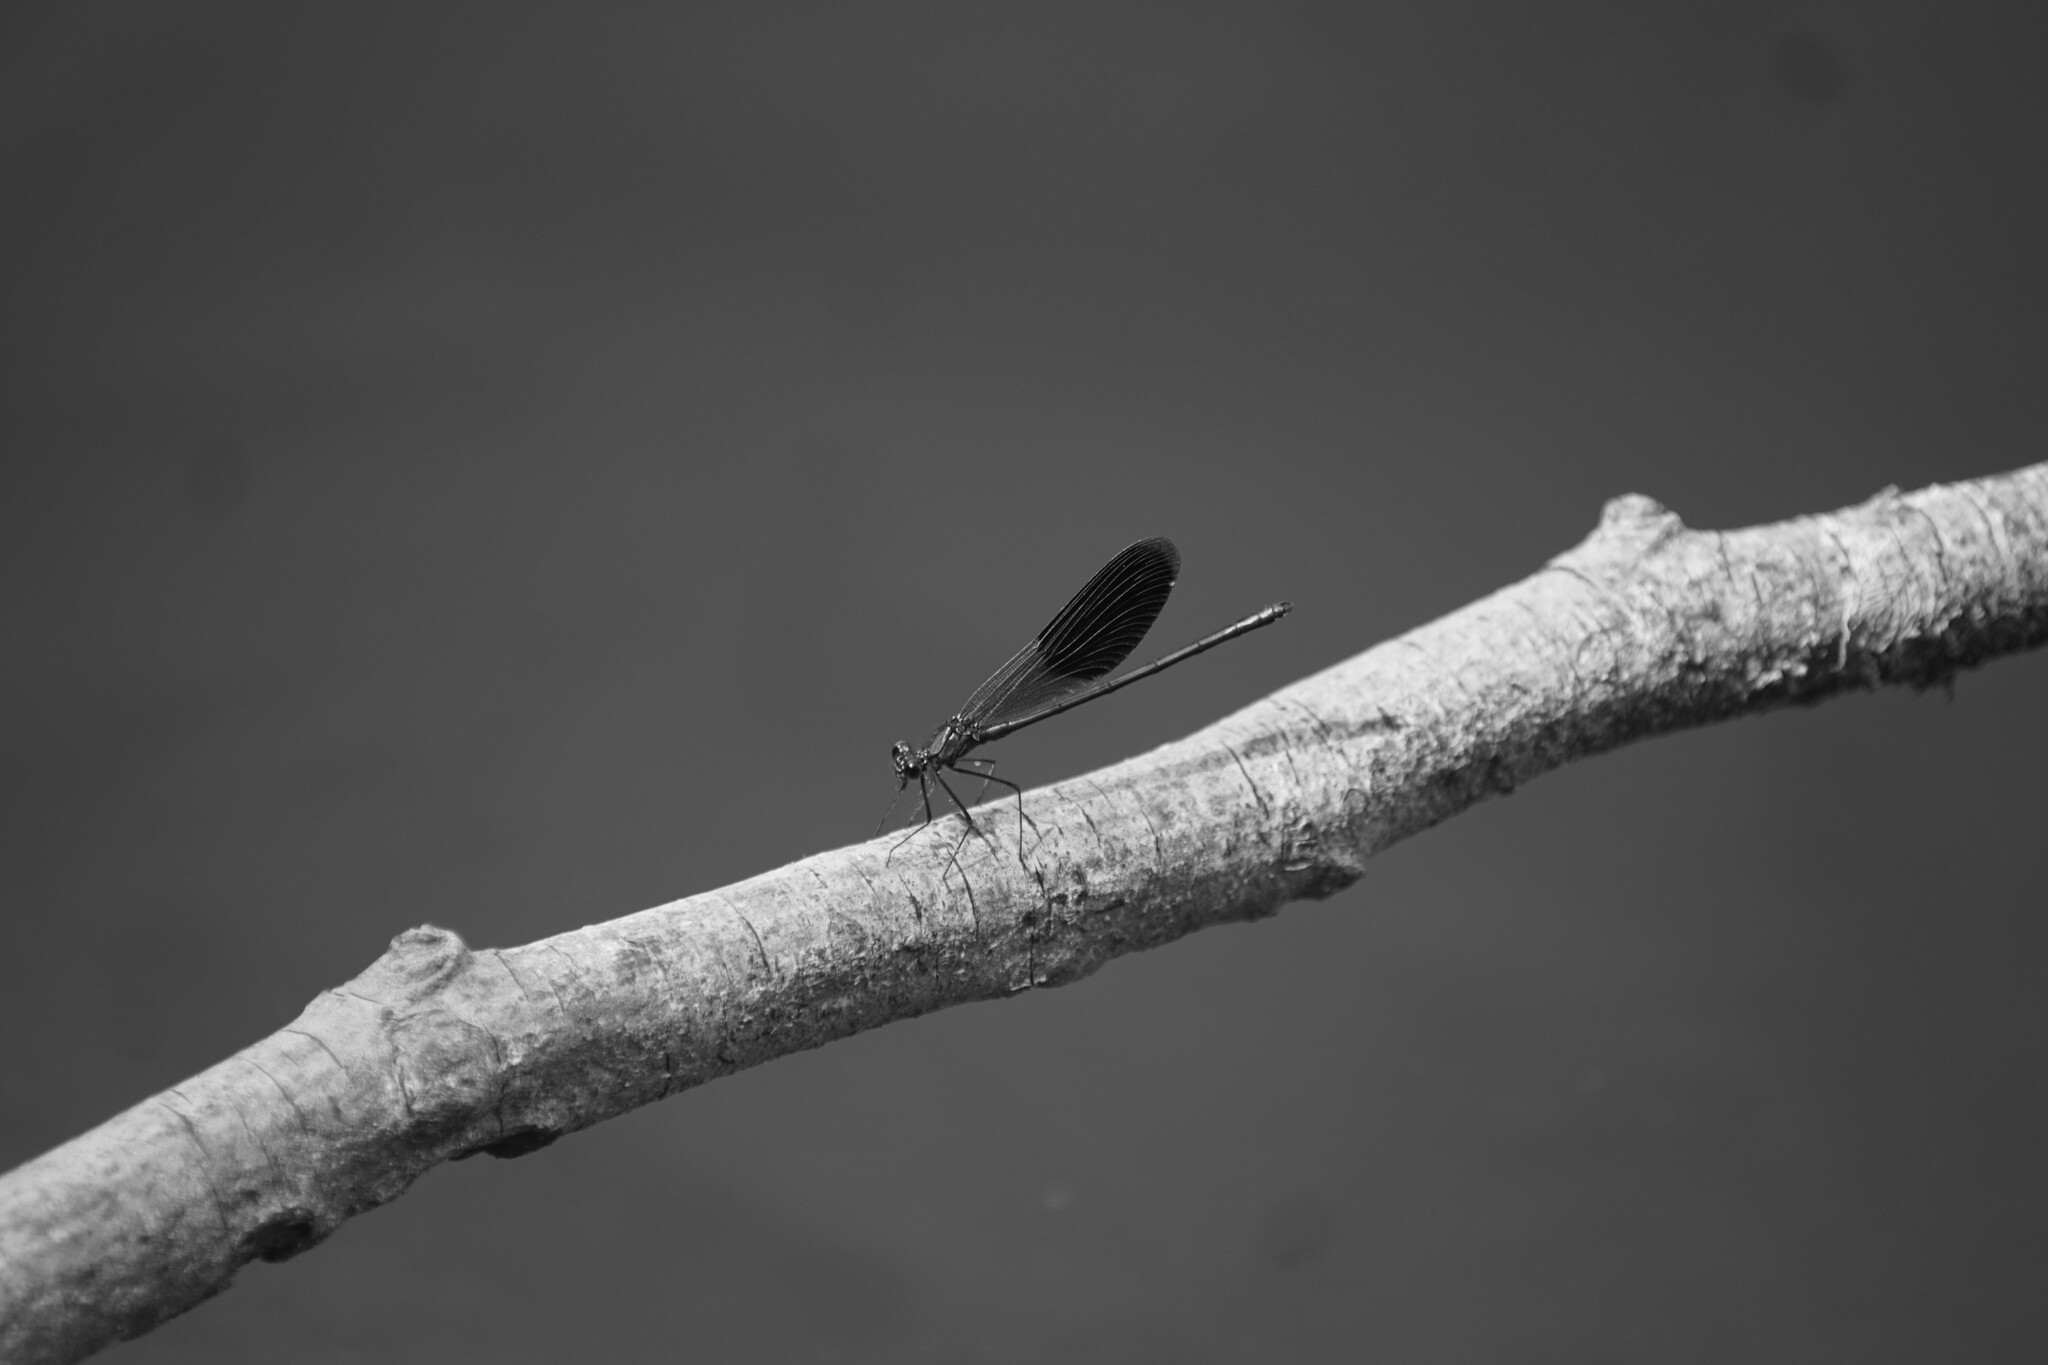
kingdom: Animalia
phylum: Arthropoda
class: Insecta
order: Odonata
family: Calopterygidae
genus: Calopteryx
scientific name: Calopteryx splendens
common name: Banded demoiselle
